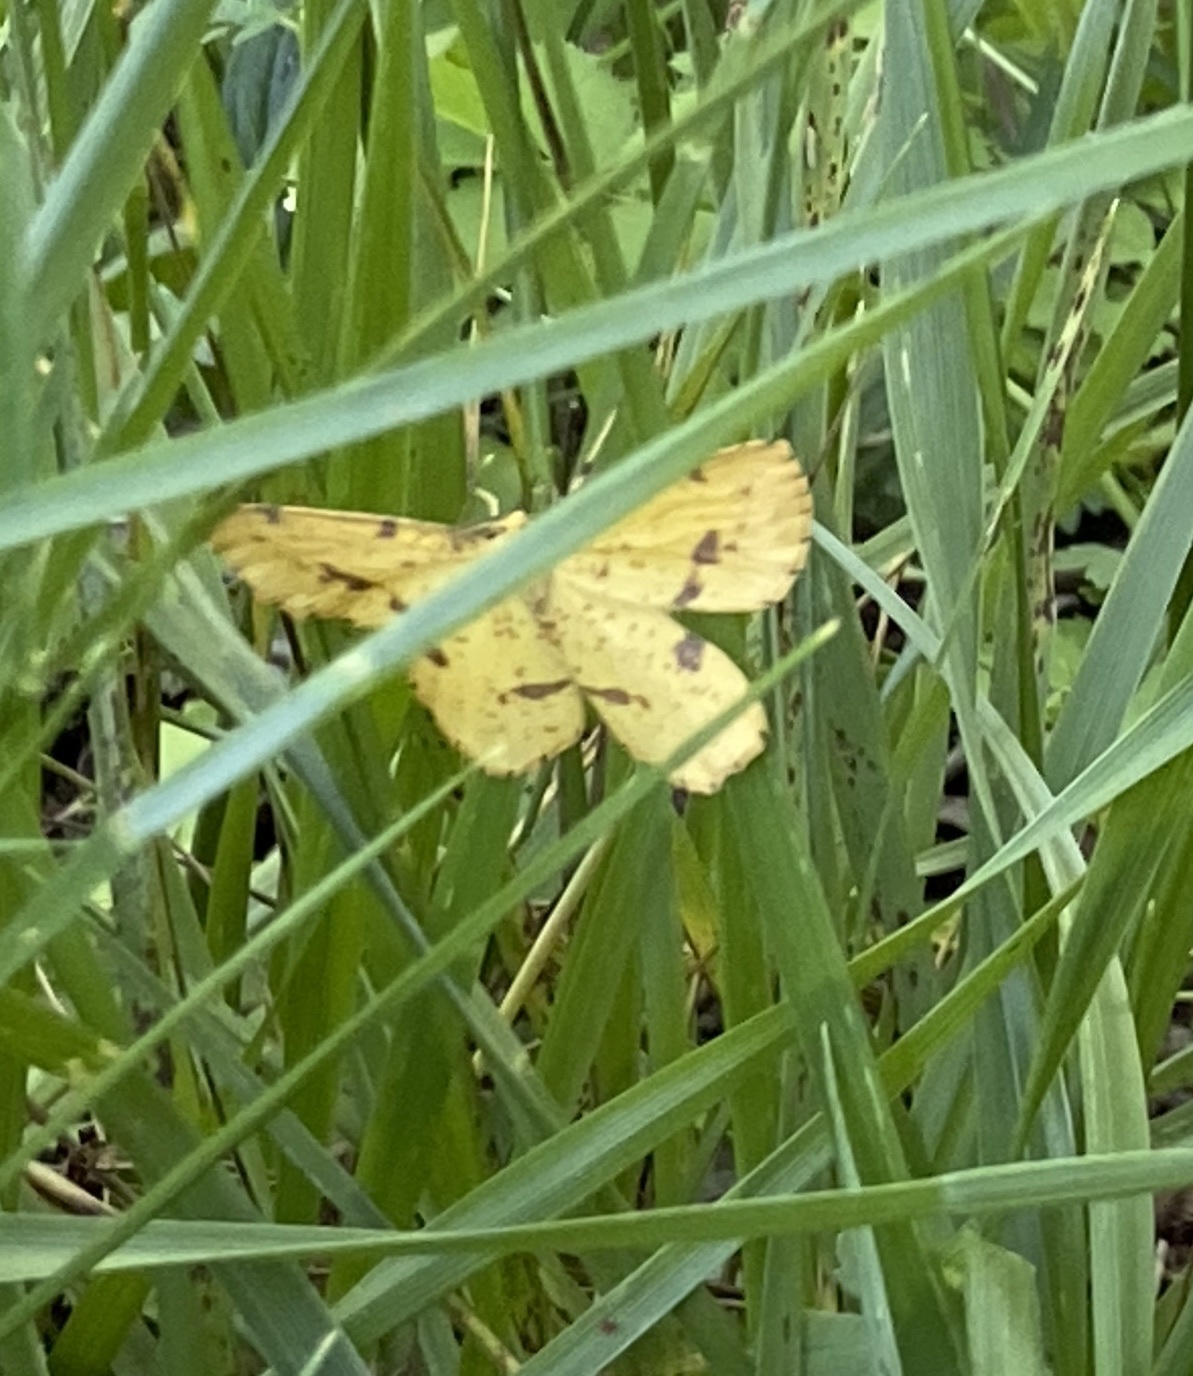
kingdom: Animalia
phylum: Arthropoda
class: Insecta
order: Lepidoptera
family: Geometridae
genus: Xanthotype
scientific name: Xanthotype
